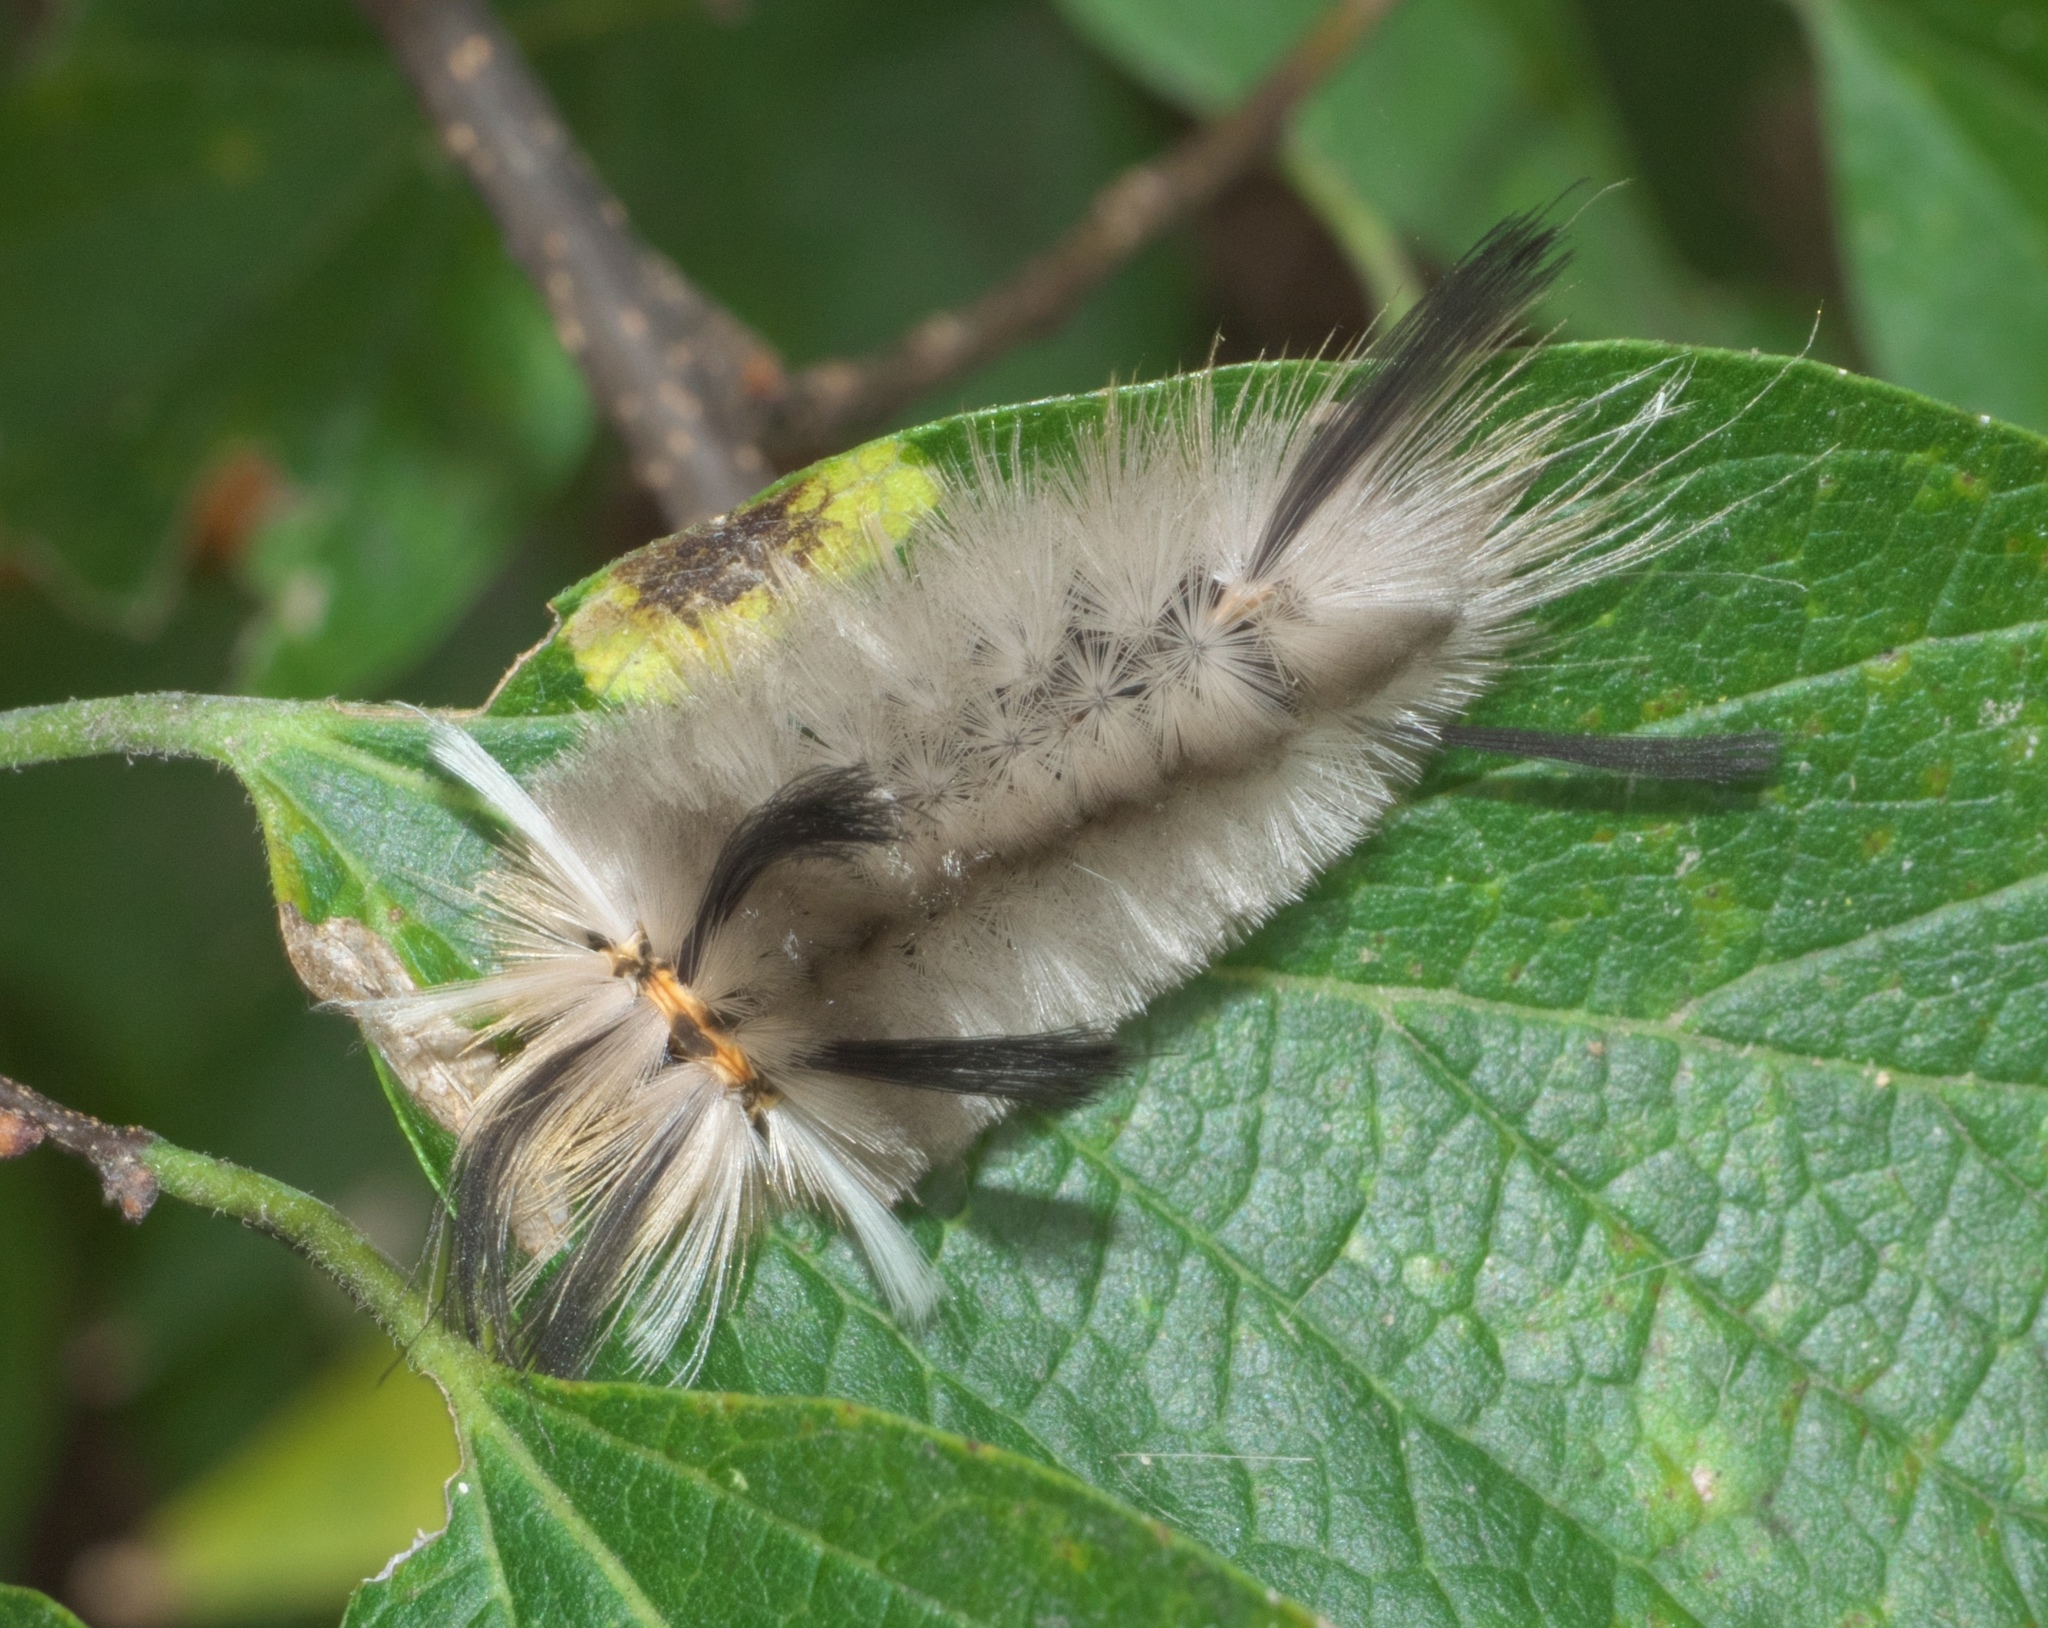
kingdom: Animalia
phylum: Arthropoda
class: Insecta
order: Lepidoptera
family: Erebidae
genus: Halysidota
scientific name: Halysidota tessellaris
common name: Banded tussock moth
